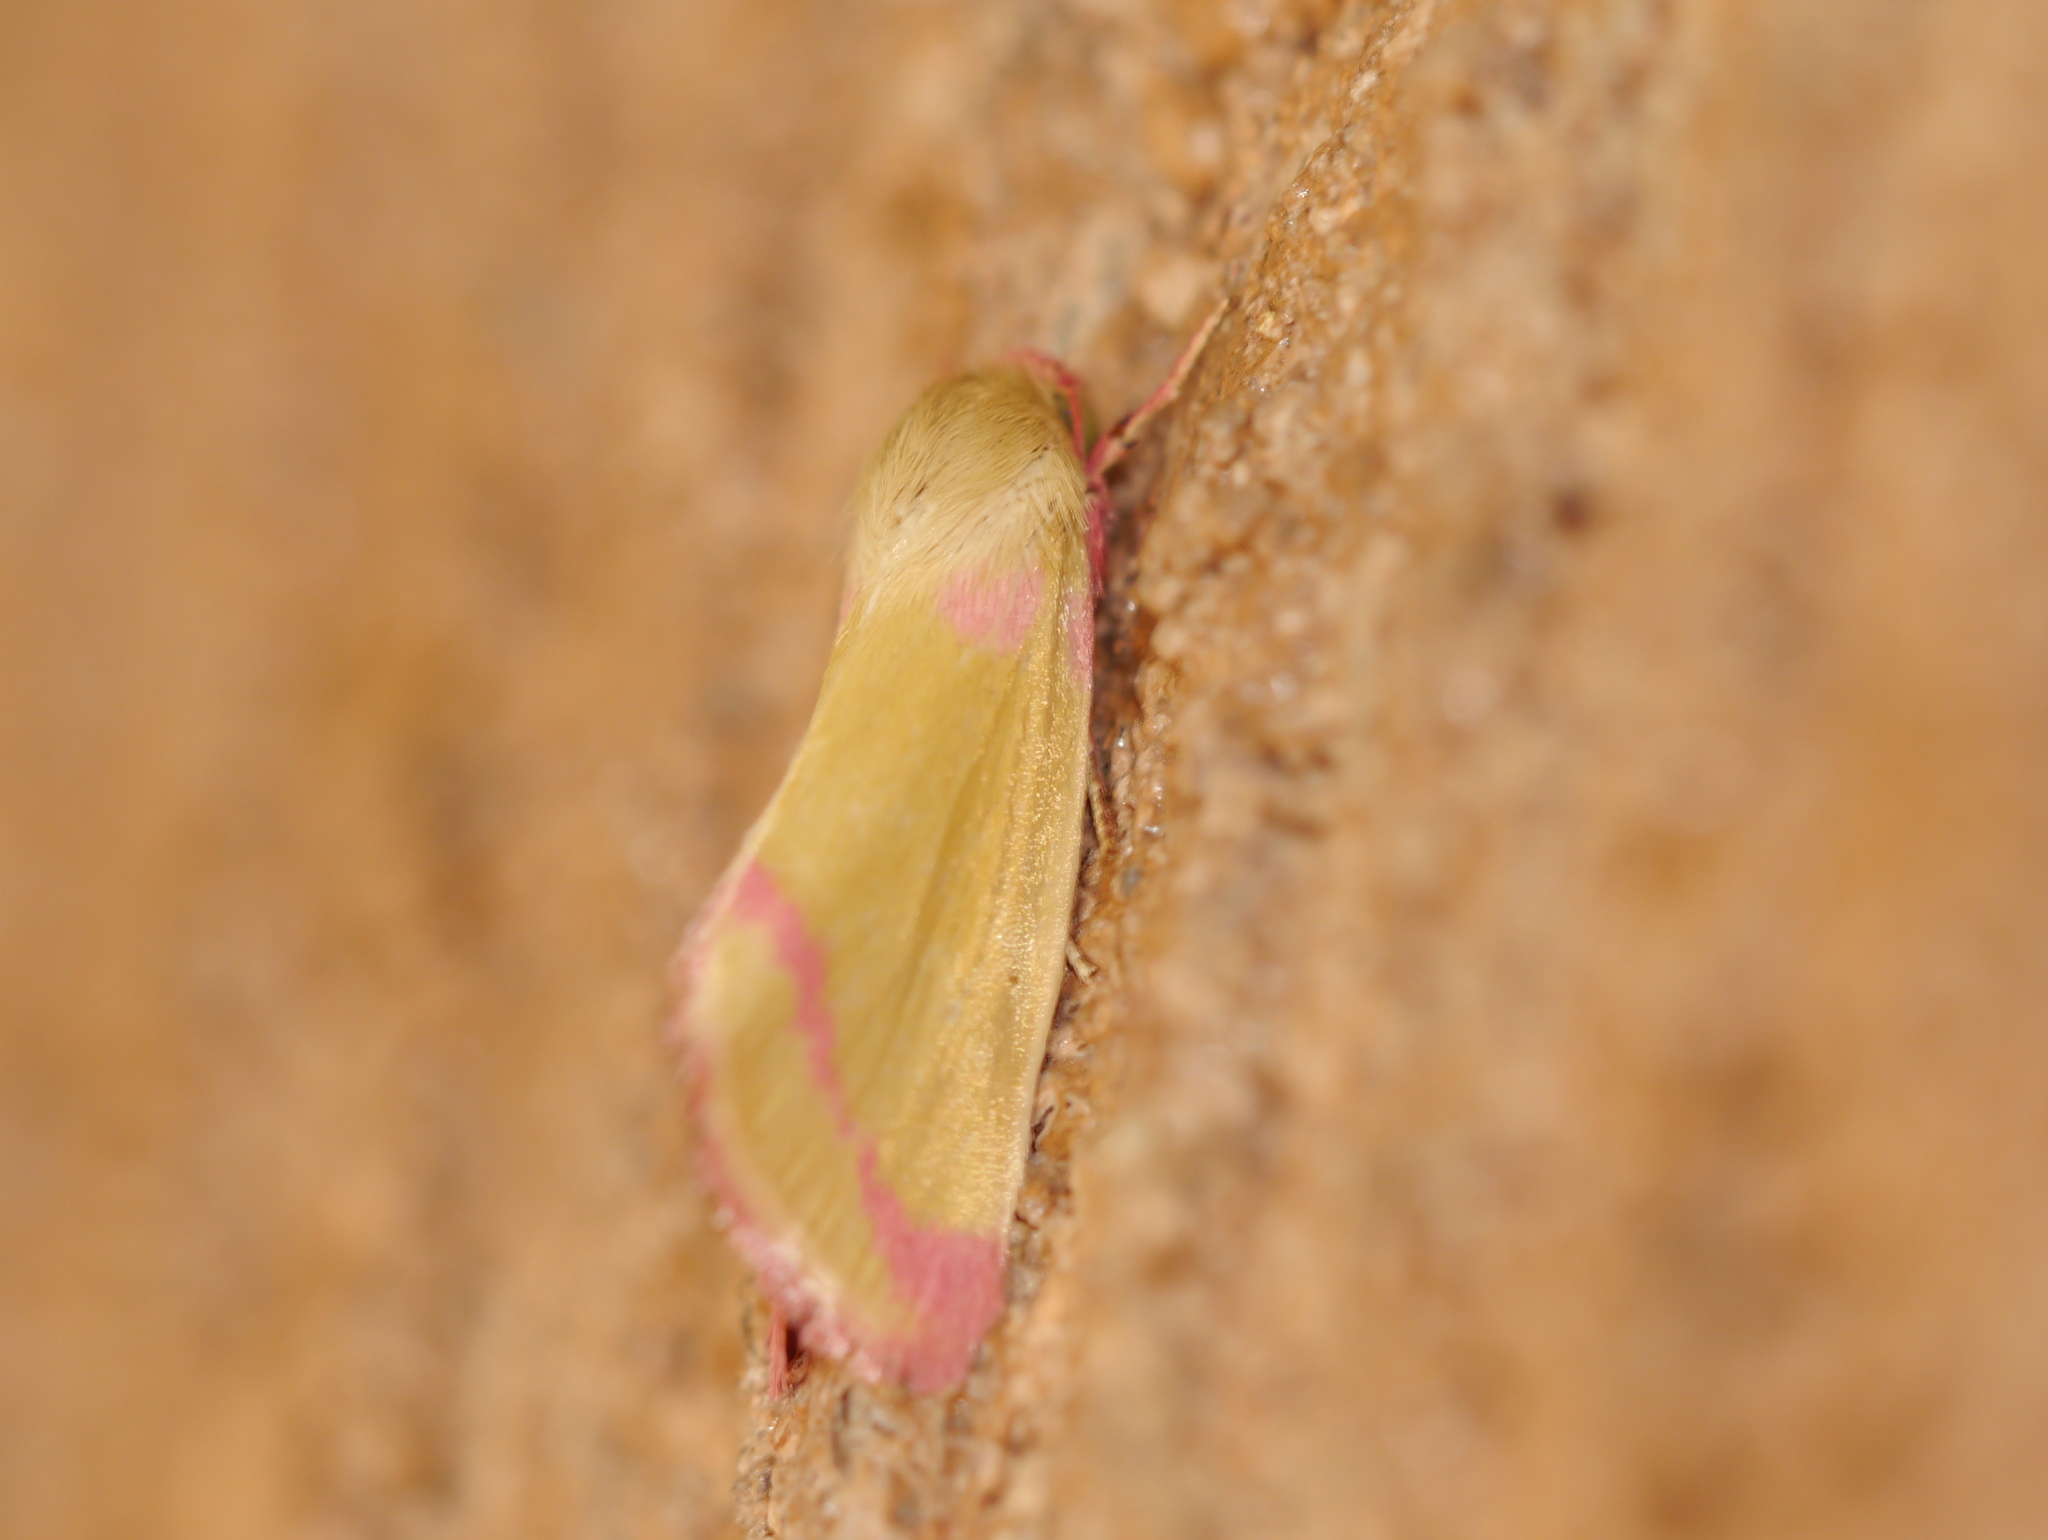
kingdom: Animalia
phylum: Arthropoda
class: Insecta
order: Lepidoptera
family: Noctuidae
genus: Heliocheilus
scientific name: Heliocheilus toralis
